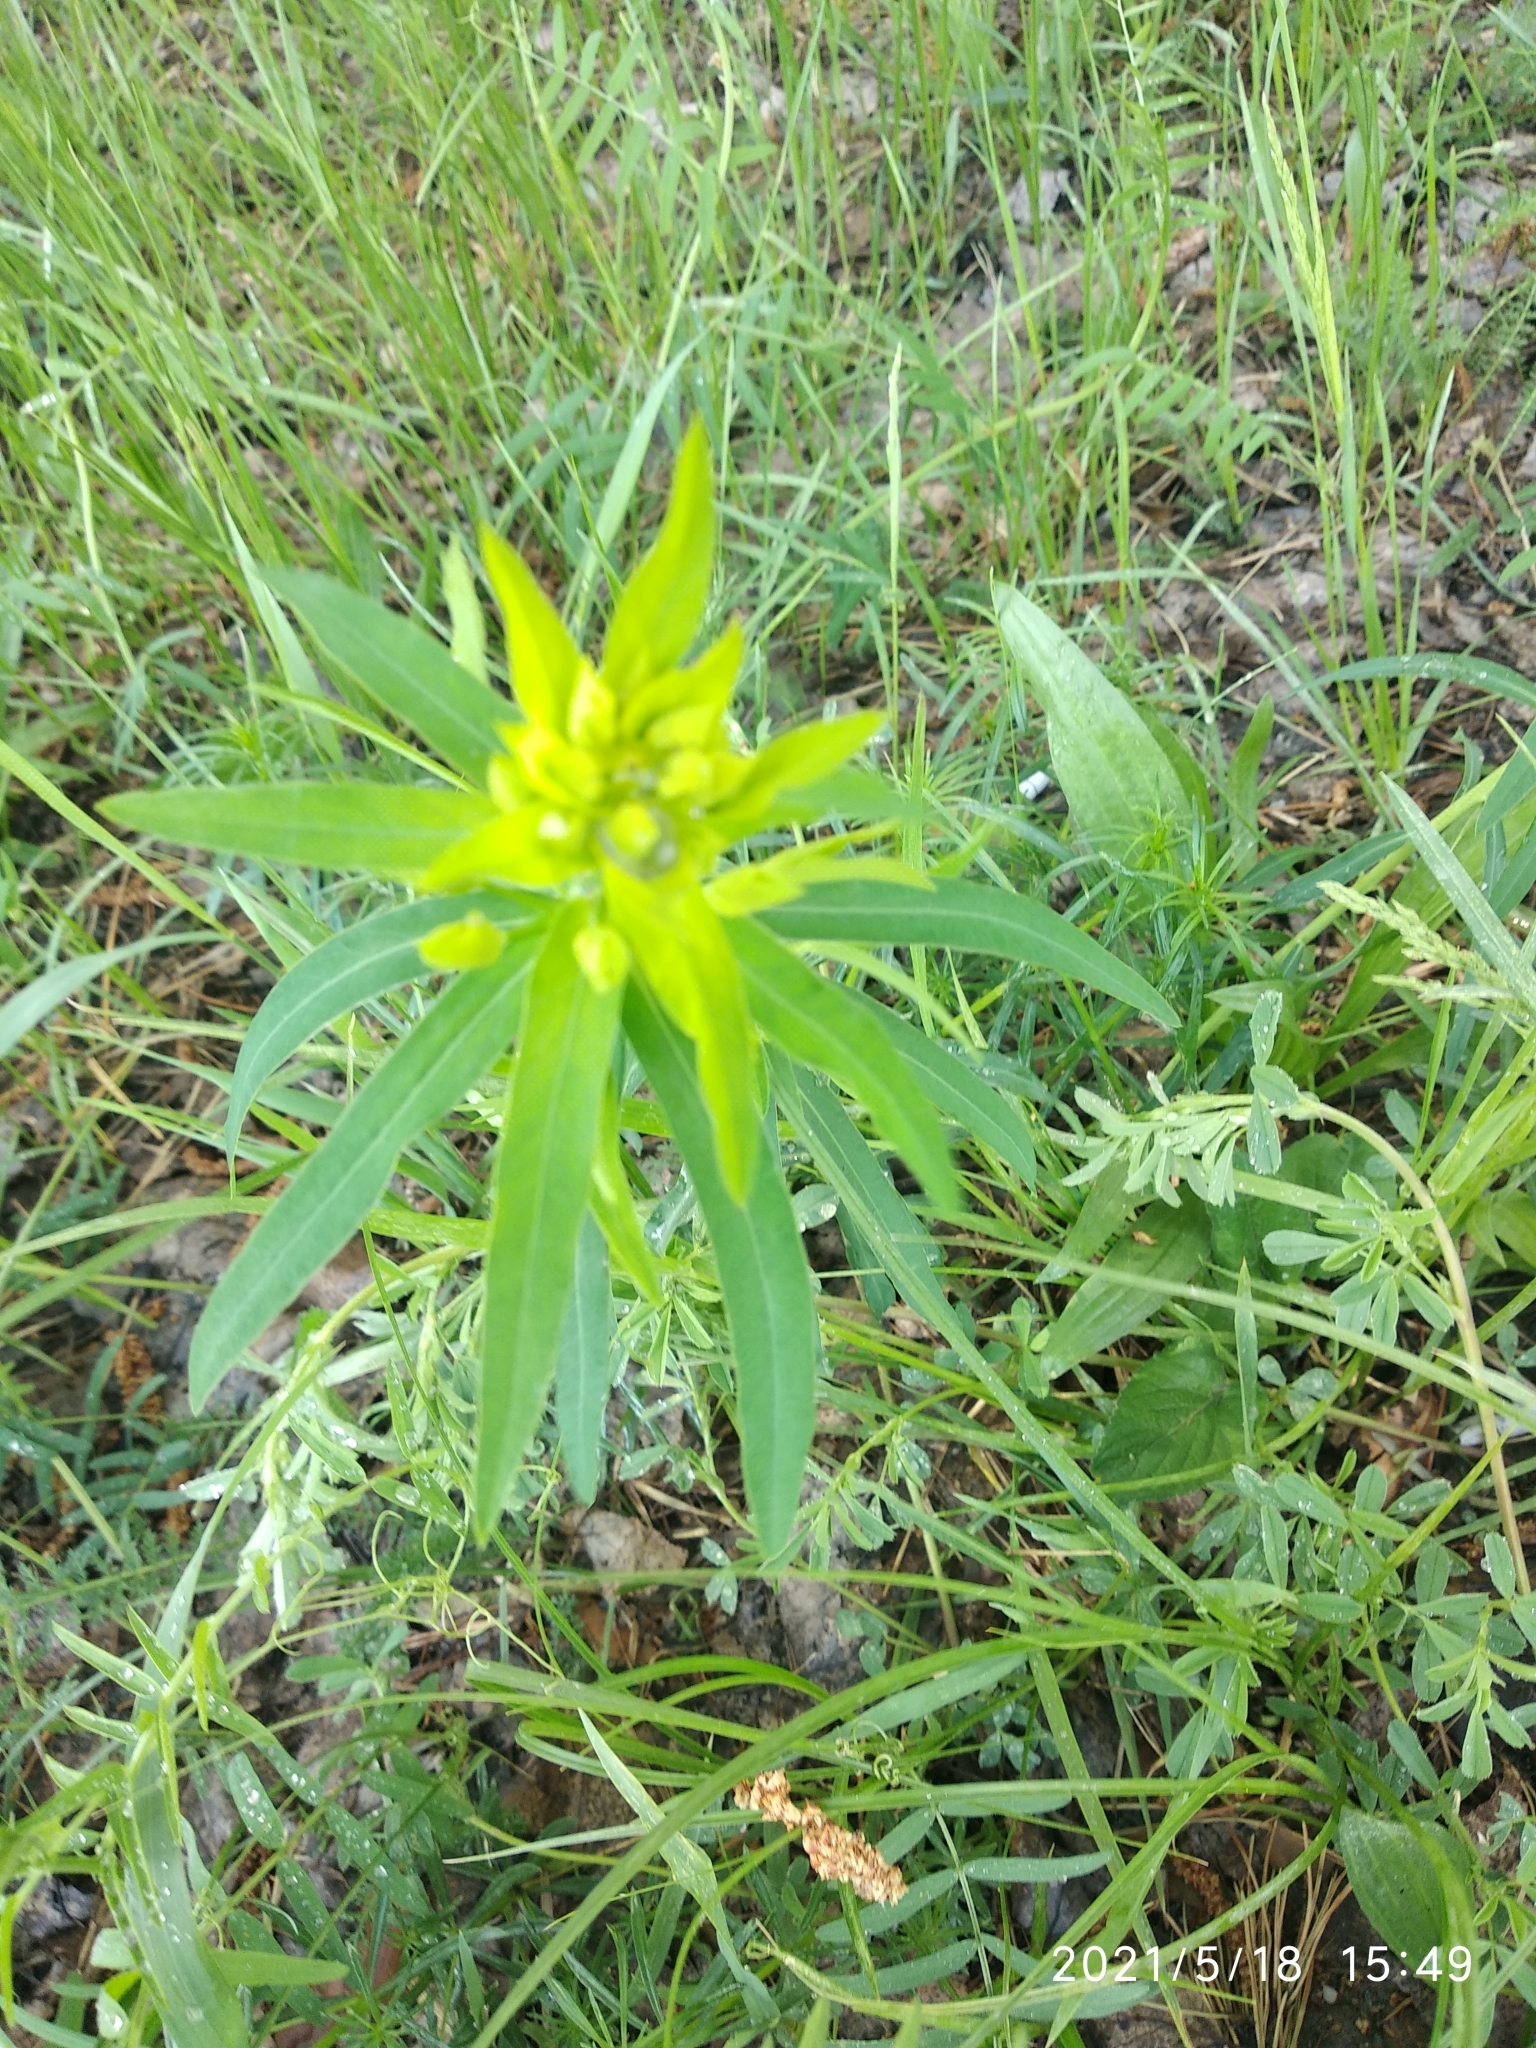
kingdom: Plantae
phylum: Tracheophyta
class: Magnoliopsida
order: Malpighiales
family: Euphorbiaceae
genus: Euphorbia
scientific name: Euphorbia virgata
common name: Leafy spurge
